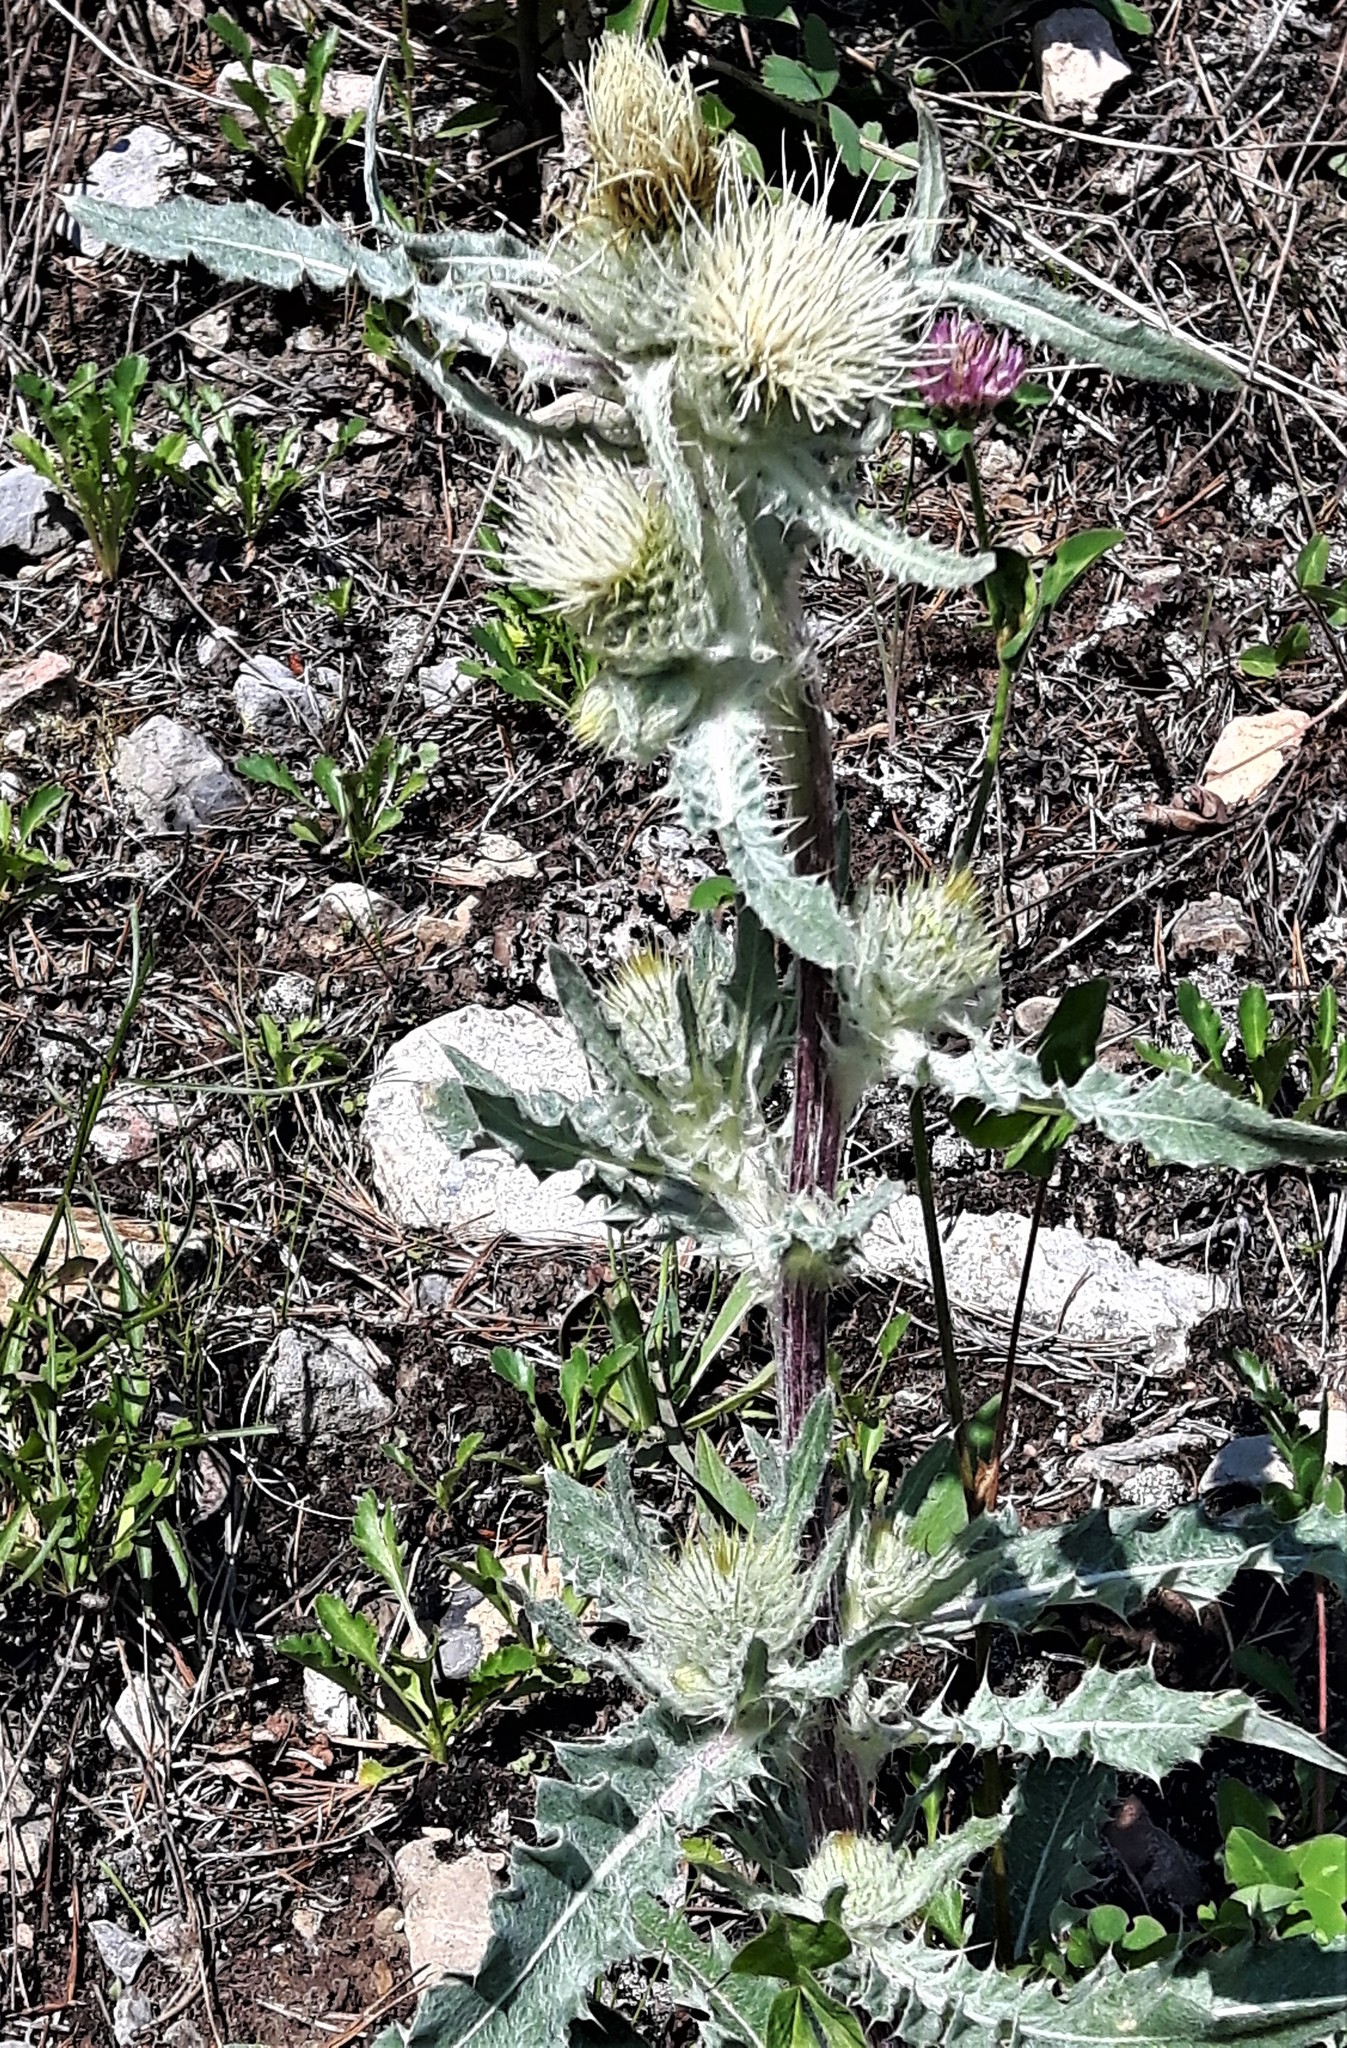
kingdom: Plantae
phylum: Tracheophyta
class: Magnoliopsida
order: Asterales
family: Asteraceae
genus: Cirsium
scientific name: Cirsium hookerianum
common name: Hooker's thistle
